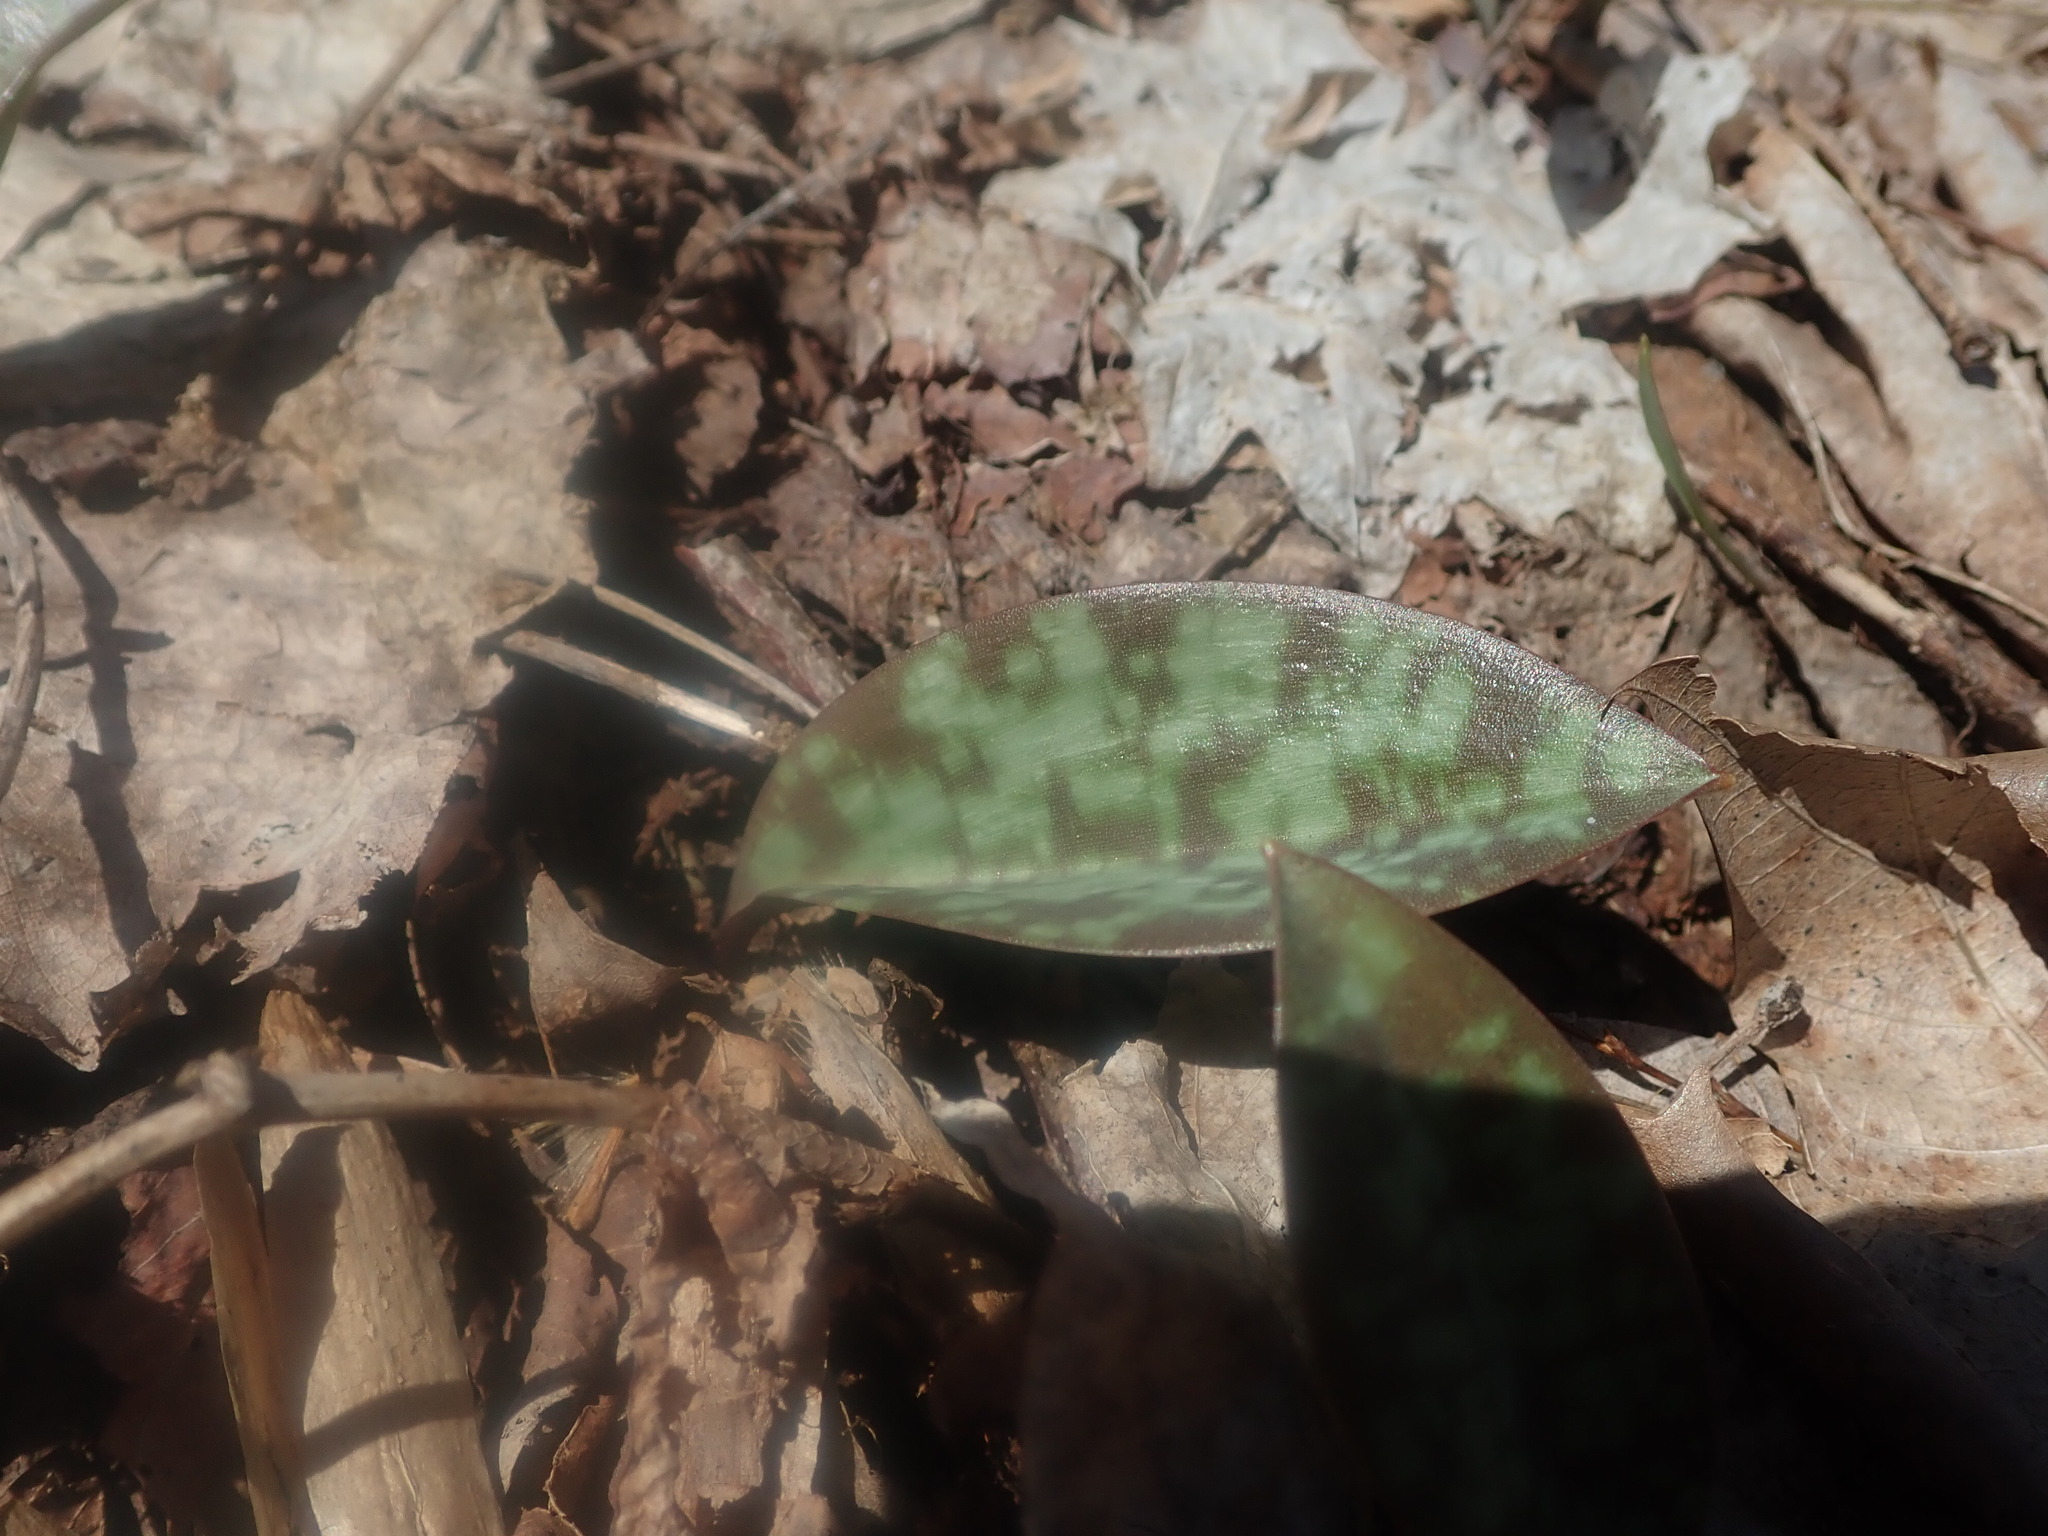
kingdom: Plantae
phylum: Tracheophyta
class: Liliopsida
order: Liliales
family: Liliaceae
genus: Erythronium
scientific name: Erythronium americanum
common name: Yellow adder's-tongue
